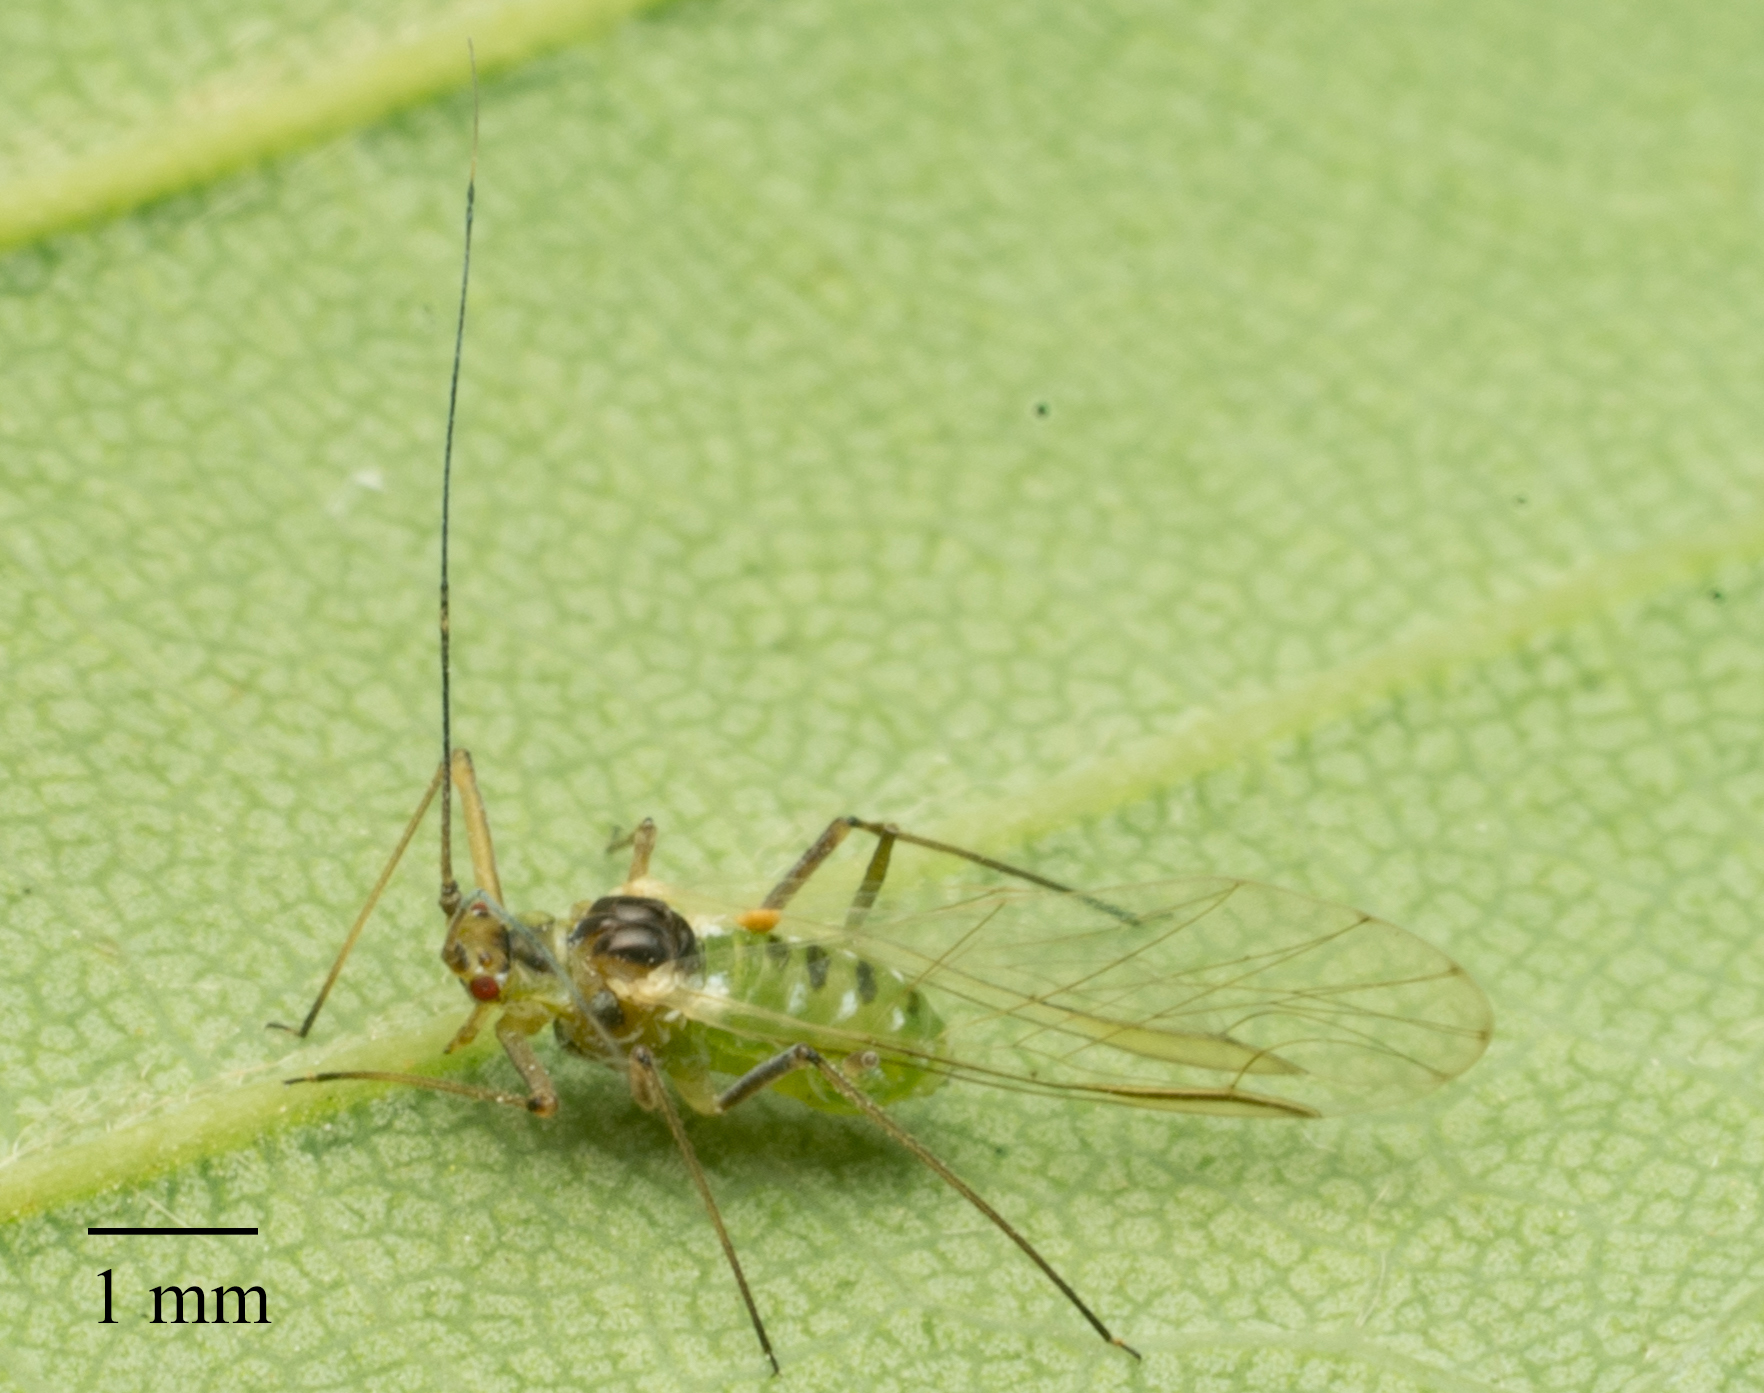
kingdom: Animalia
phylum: Arthropoda
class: Insecta
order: Hemiptera
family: Aphididae
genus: Drepanosiphum
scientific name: Drepanosiphum platanoidis
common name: Common sycamore aphid
